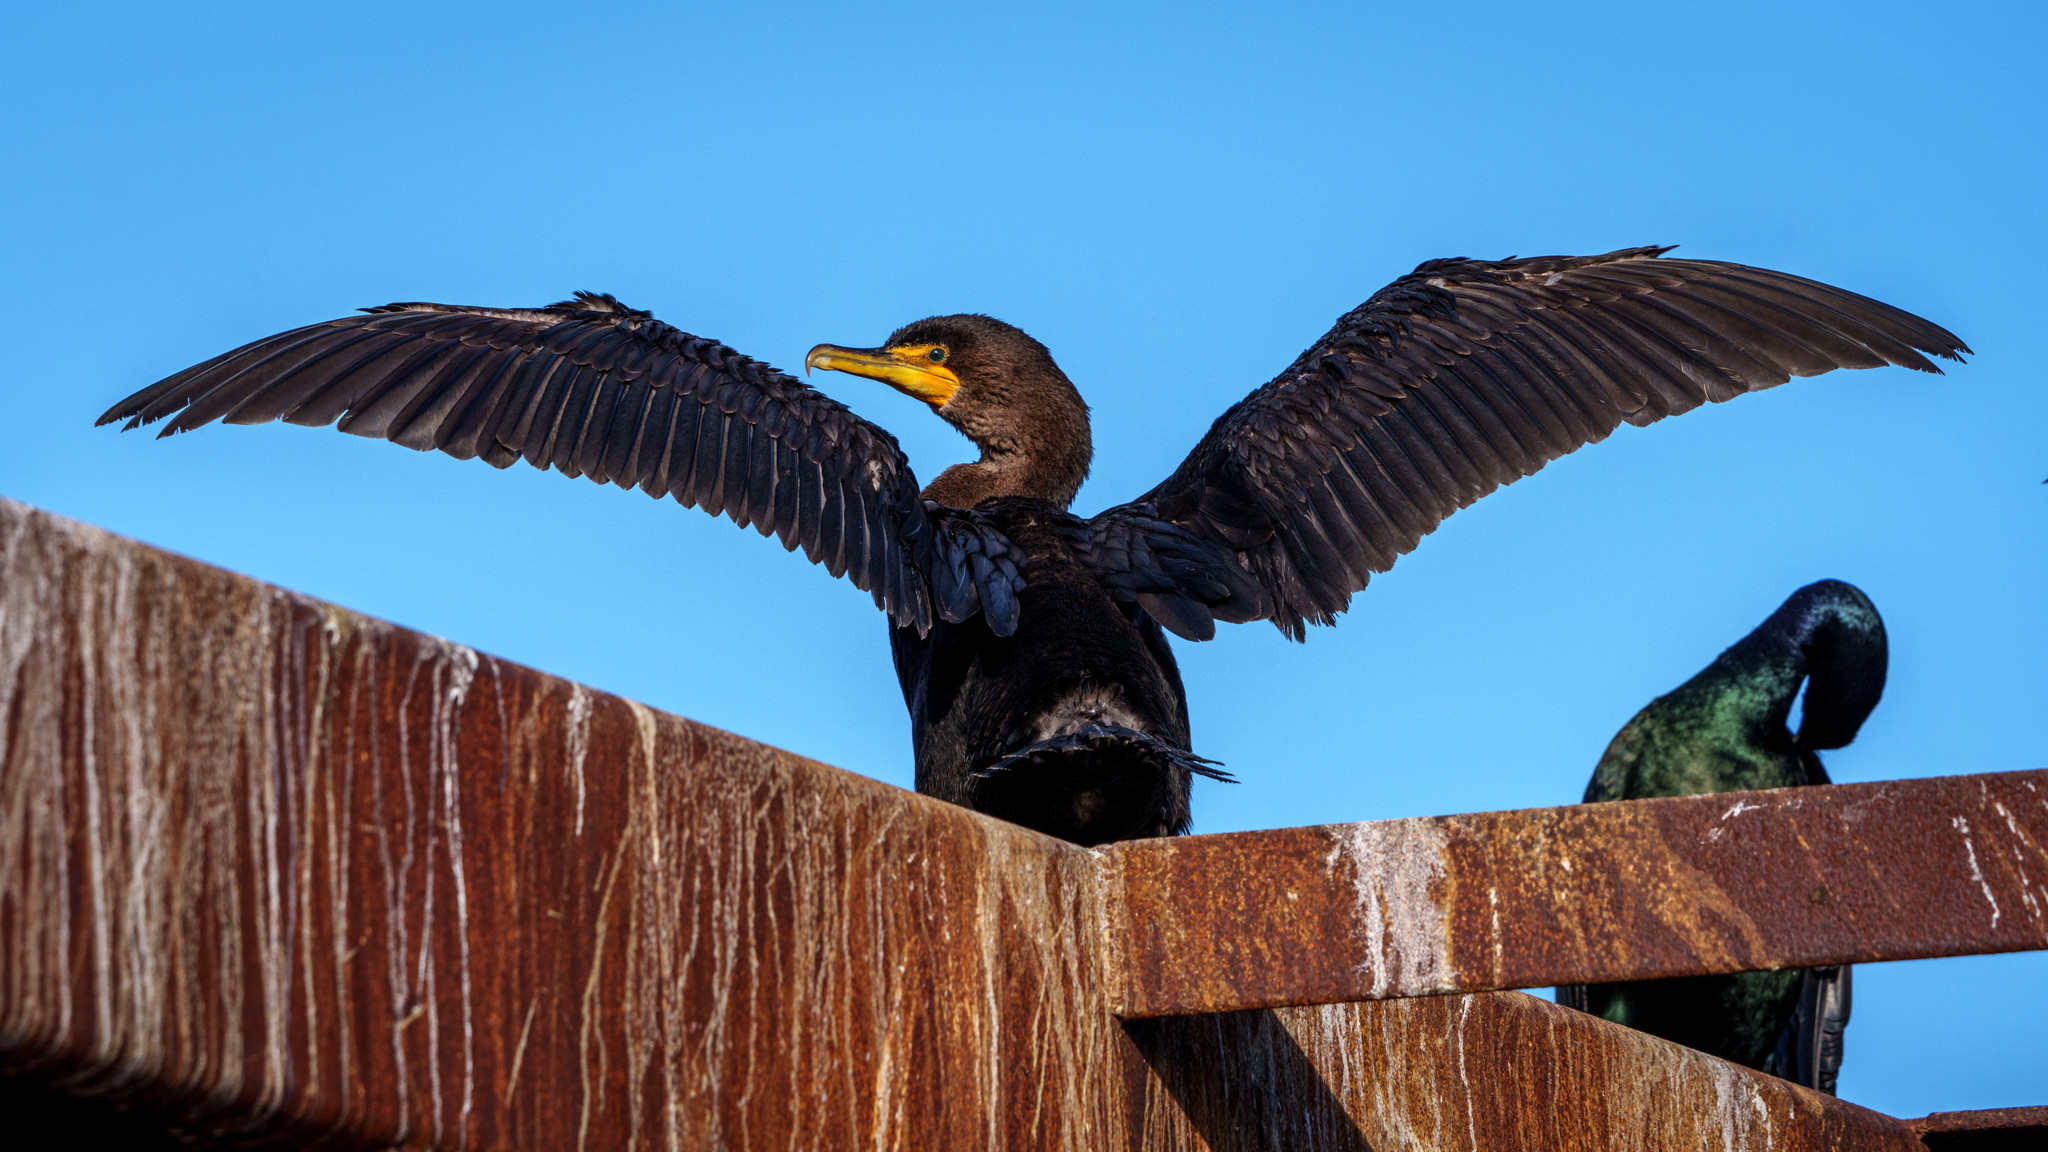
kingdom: Animalia
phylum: Chordata
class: Aves
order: Suliformes
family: Phalacrocoracidae
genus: Phalacrocorax
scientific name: Phalacrocorax auritus
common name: Double-crested cormorant
